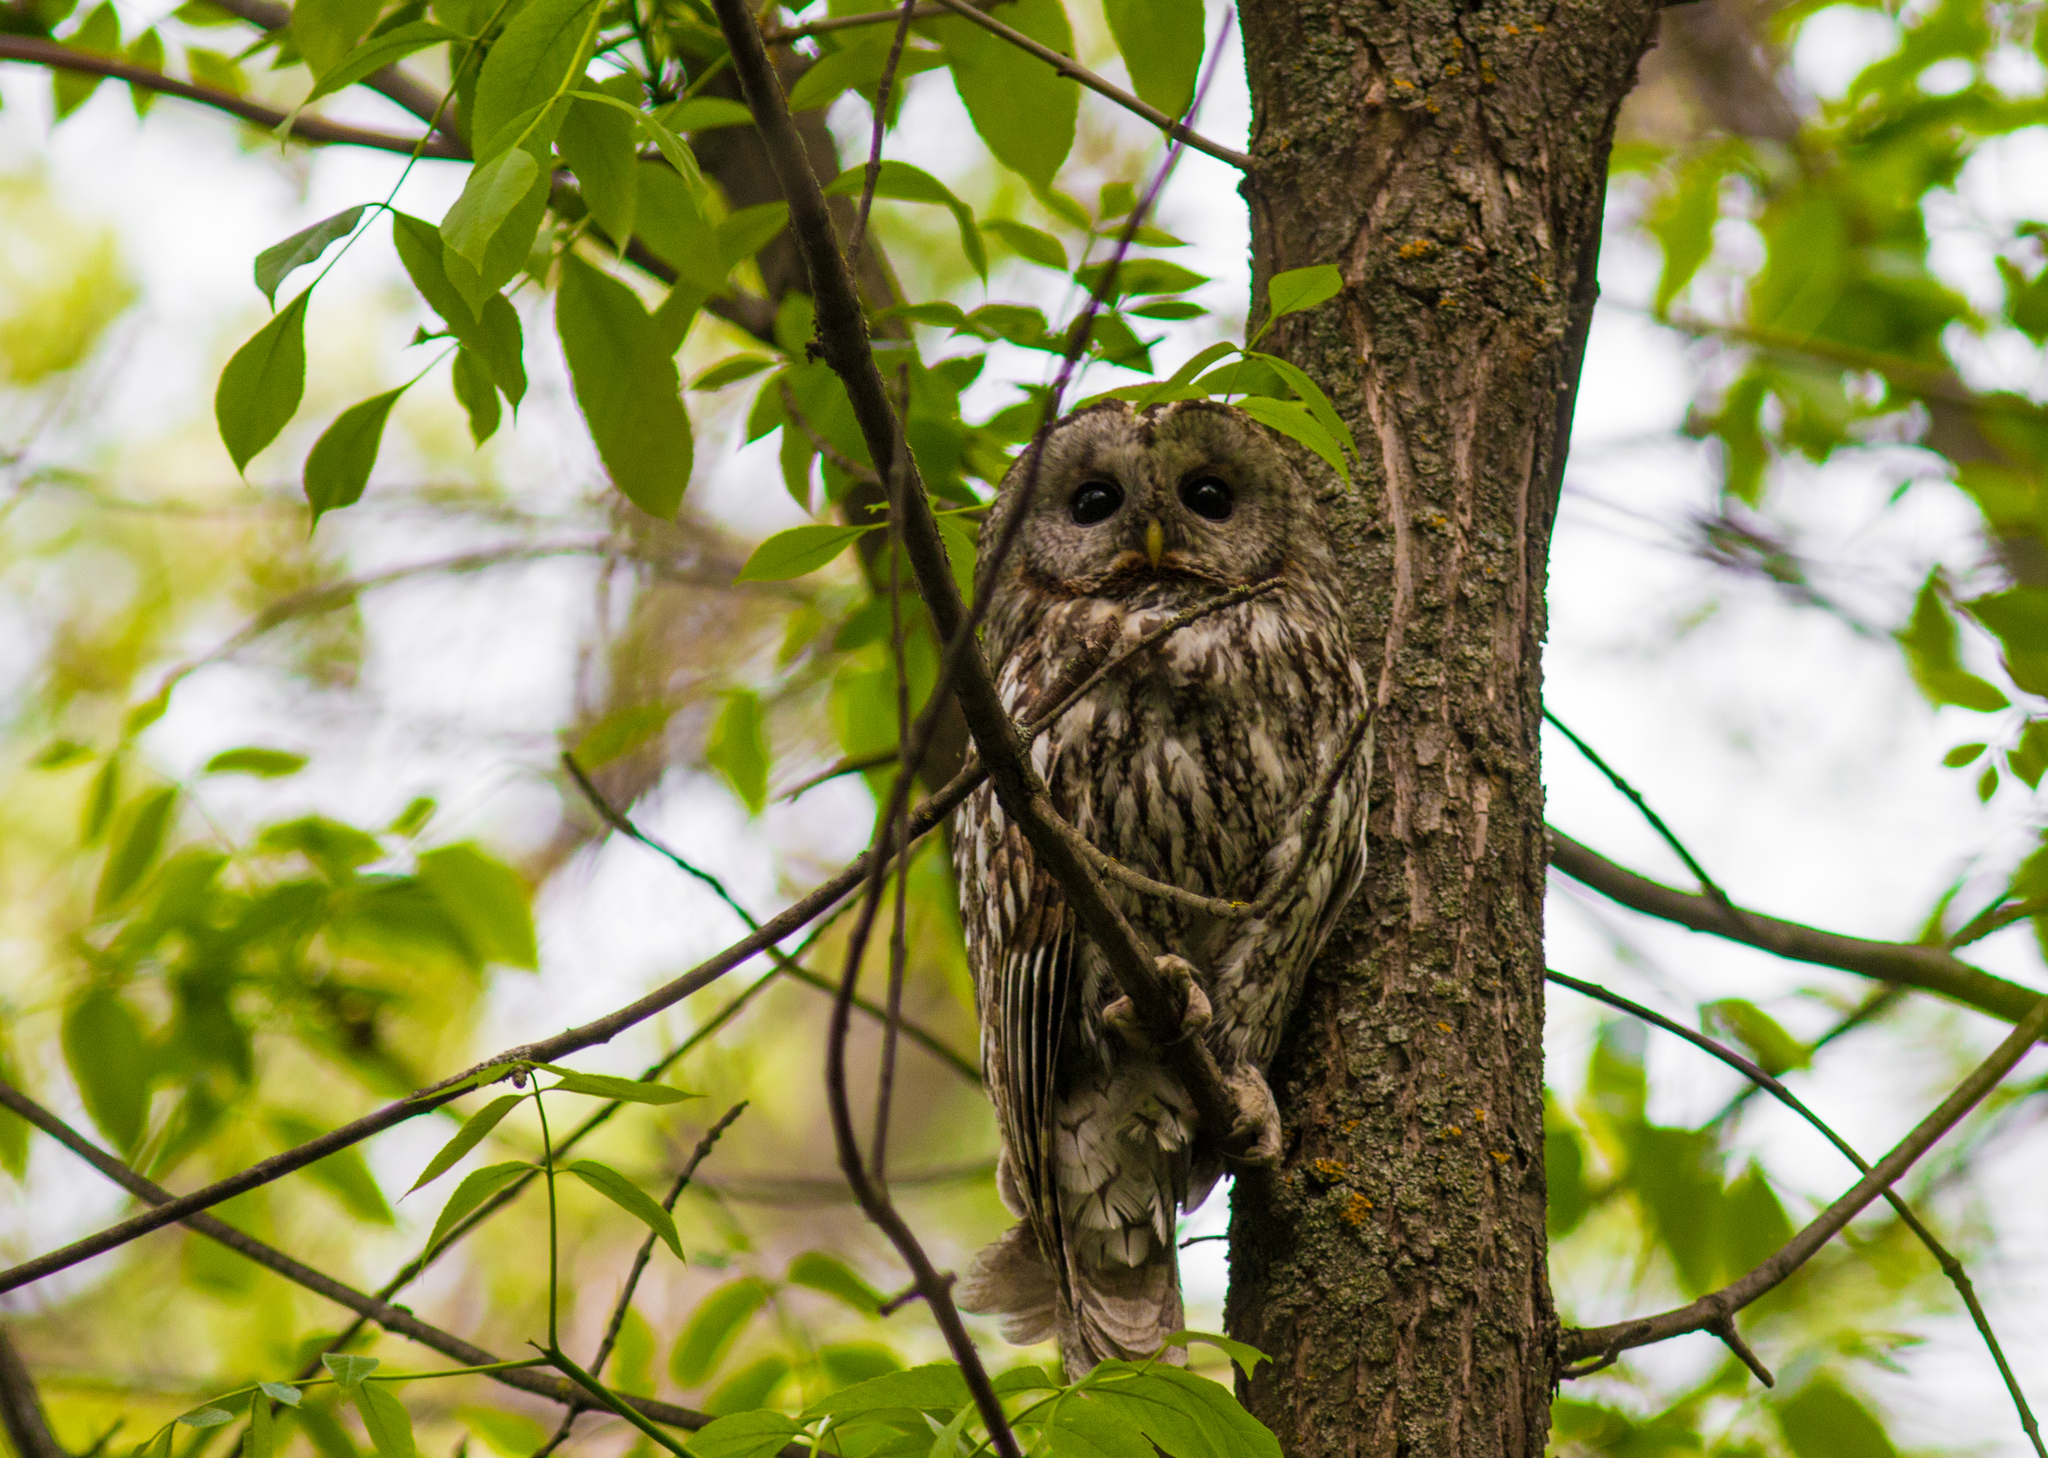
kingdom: Animalia
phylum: Chordata
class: Aves
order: Strigiformes
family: Strigidae
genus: Strix
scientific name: Strix aluco
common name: Tawny owl
